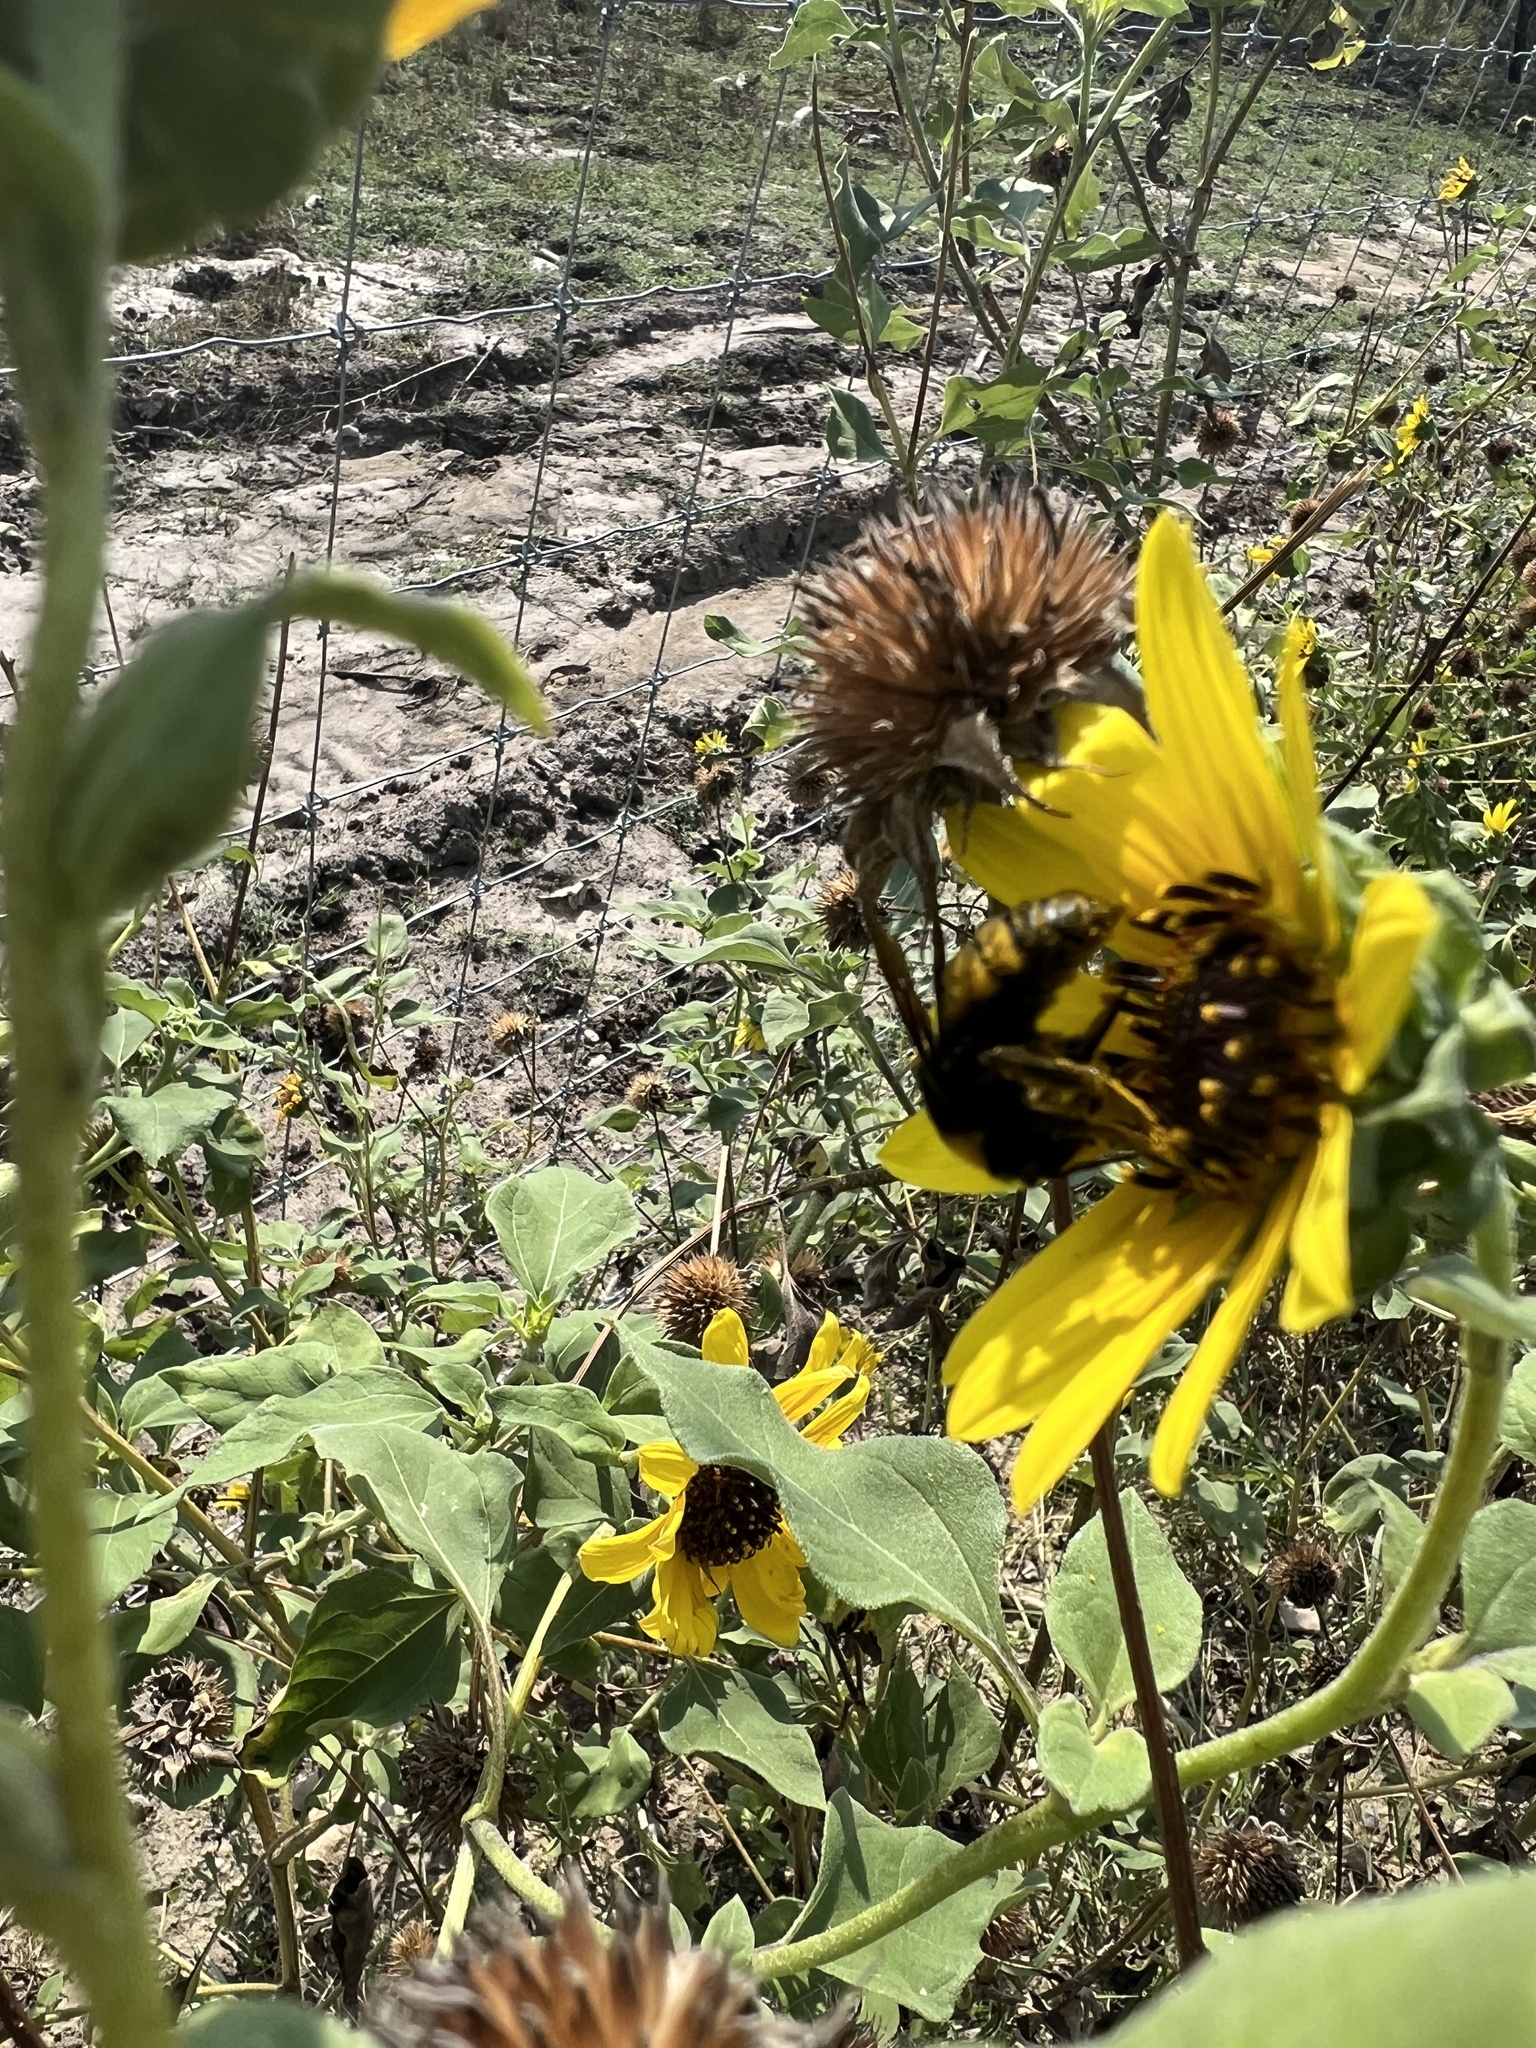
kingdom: Animalia
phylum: Arthropoda
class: Insecta
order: Hymenoptera
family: Apidae
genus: Bombus
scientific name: Bombus pensylvanicus
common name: Bumble bee
